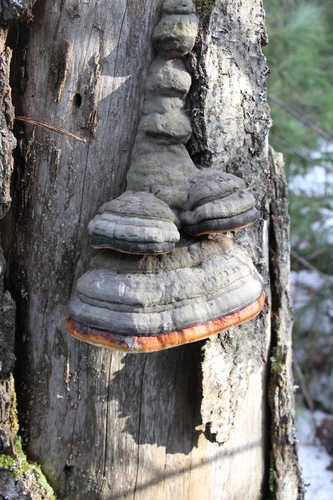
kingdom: Fungi
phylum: Basidiomycota
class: Agaricomycetes
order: Polyporales
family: Fomitopsidaceae
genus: Fomitopsis
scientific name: Fomitopsis pinicola
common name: Red-belted bracket
